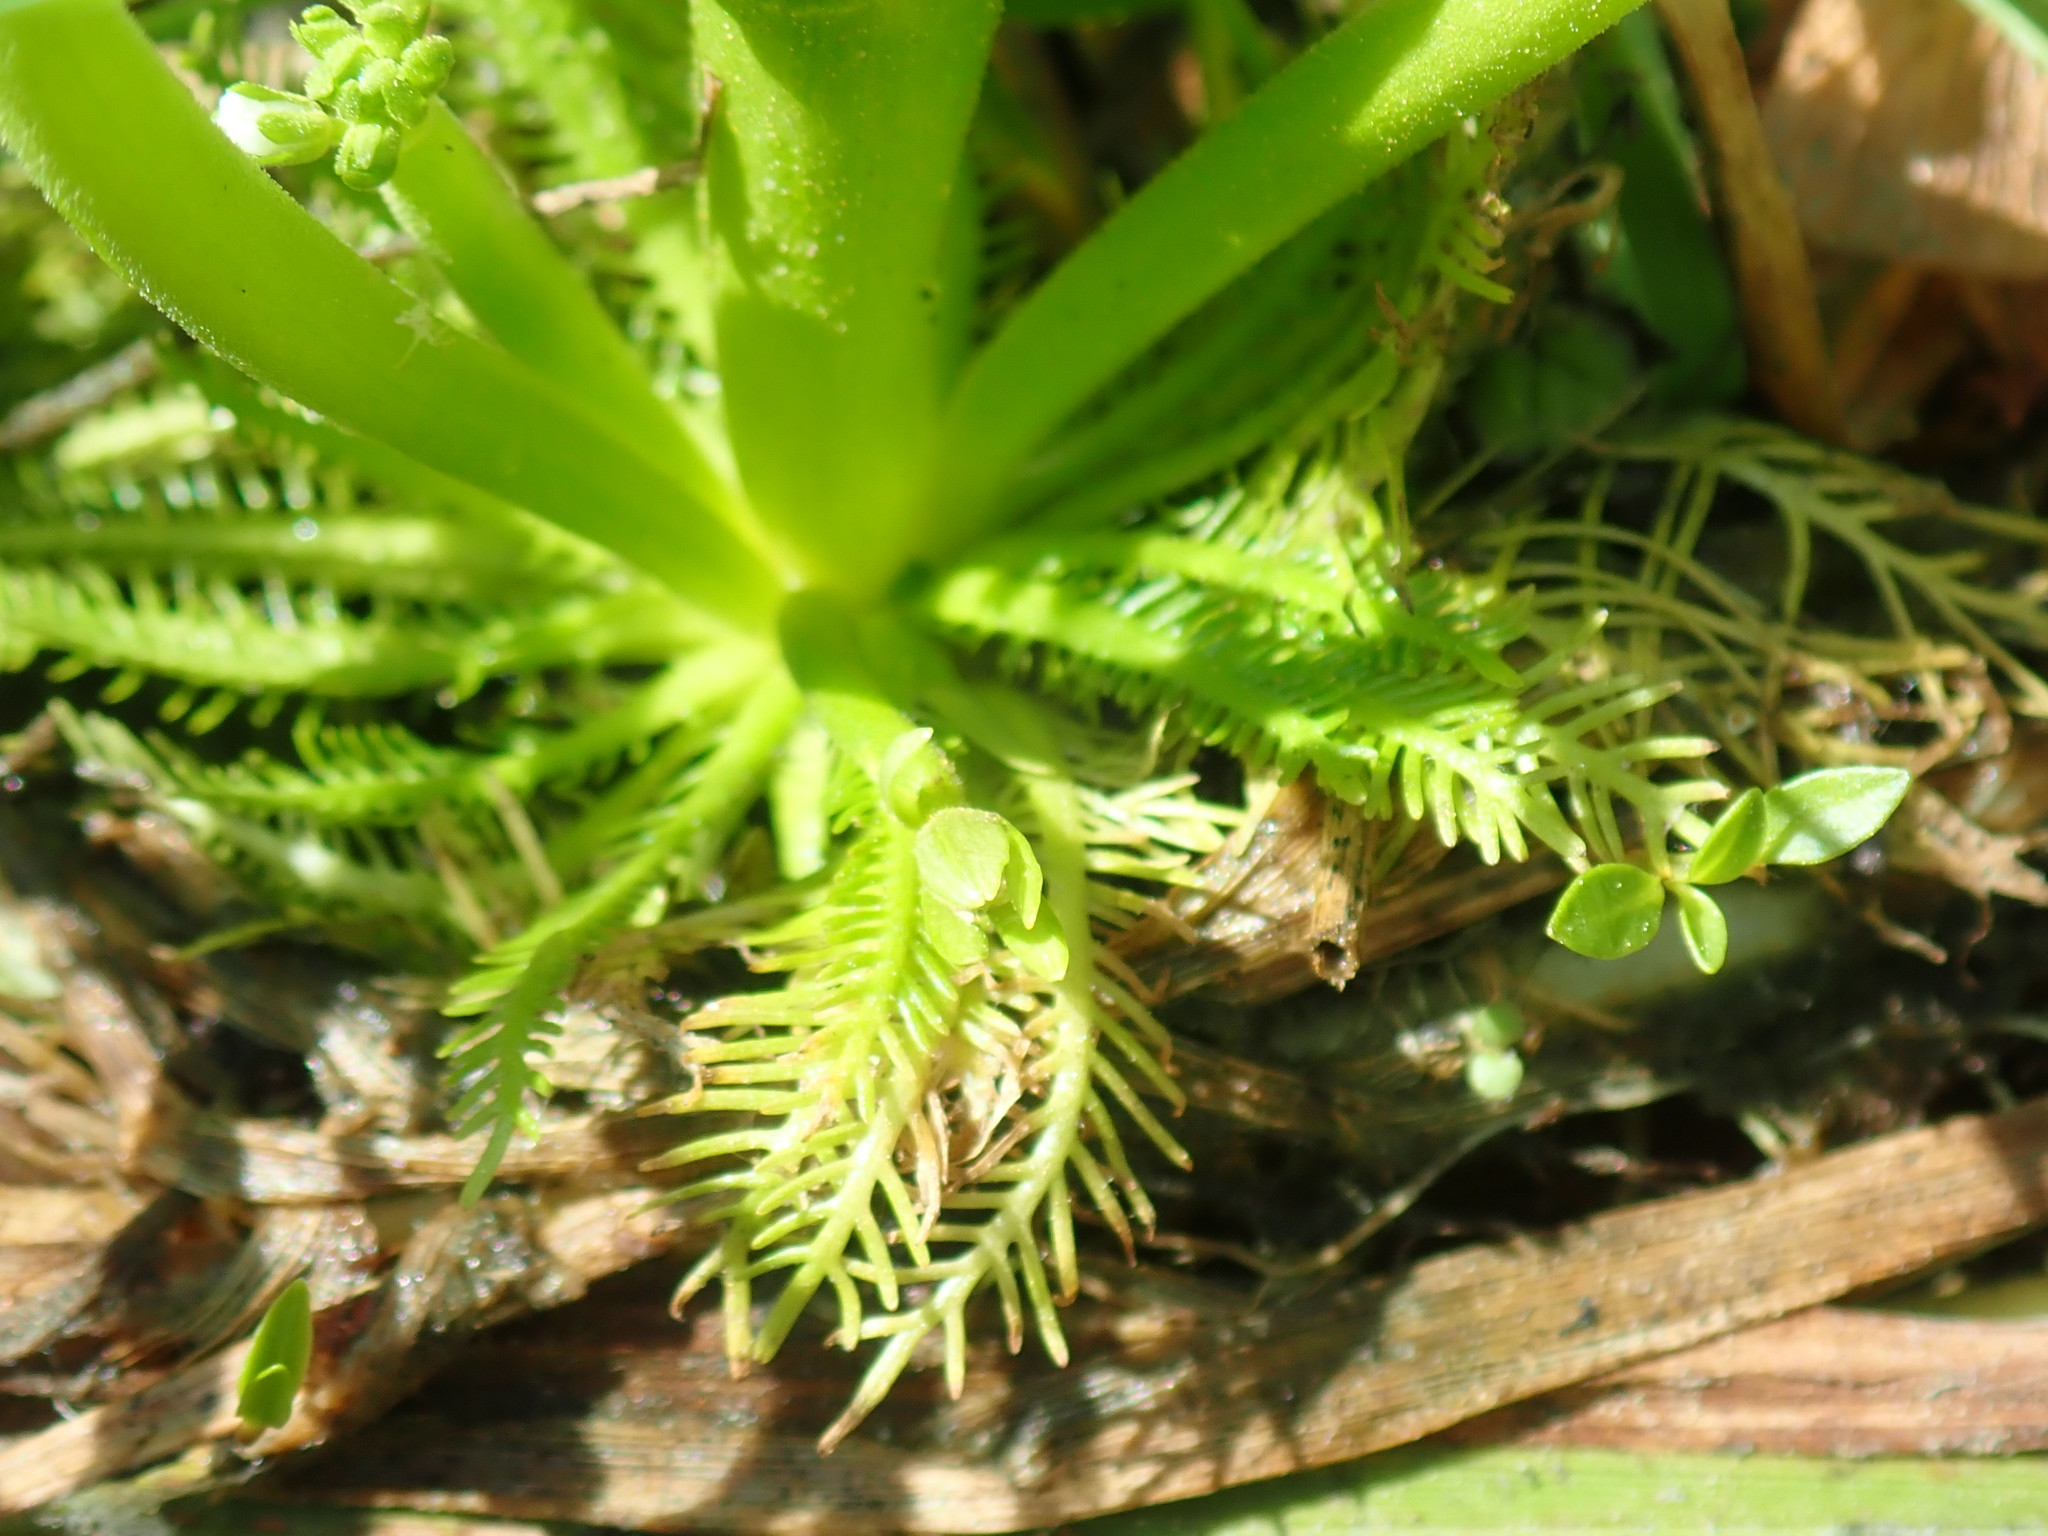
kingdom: Plantae
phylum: Tracheophyta
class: Magnoliopsida
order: Ericales
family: Primulaceae
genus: Hottonia
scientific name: Hottonia inflata
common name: American featherfoil
